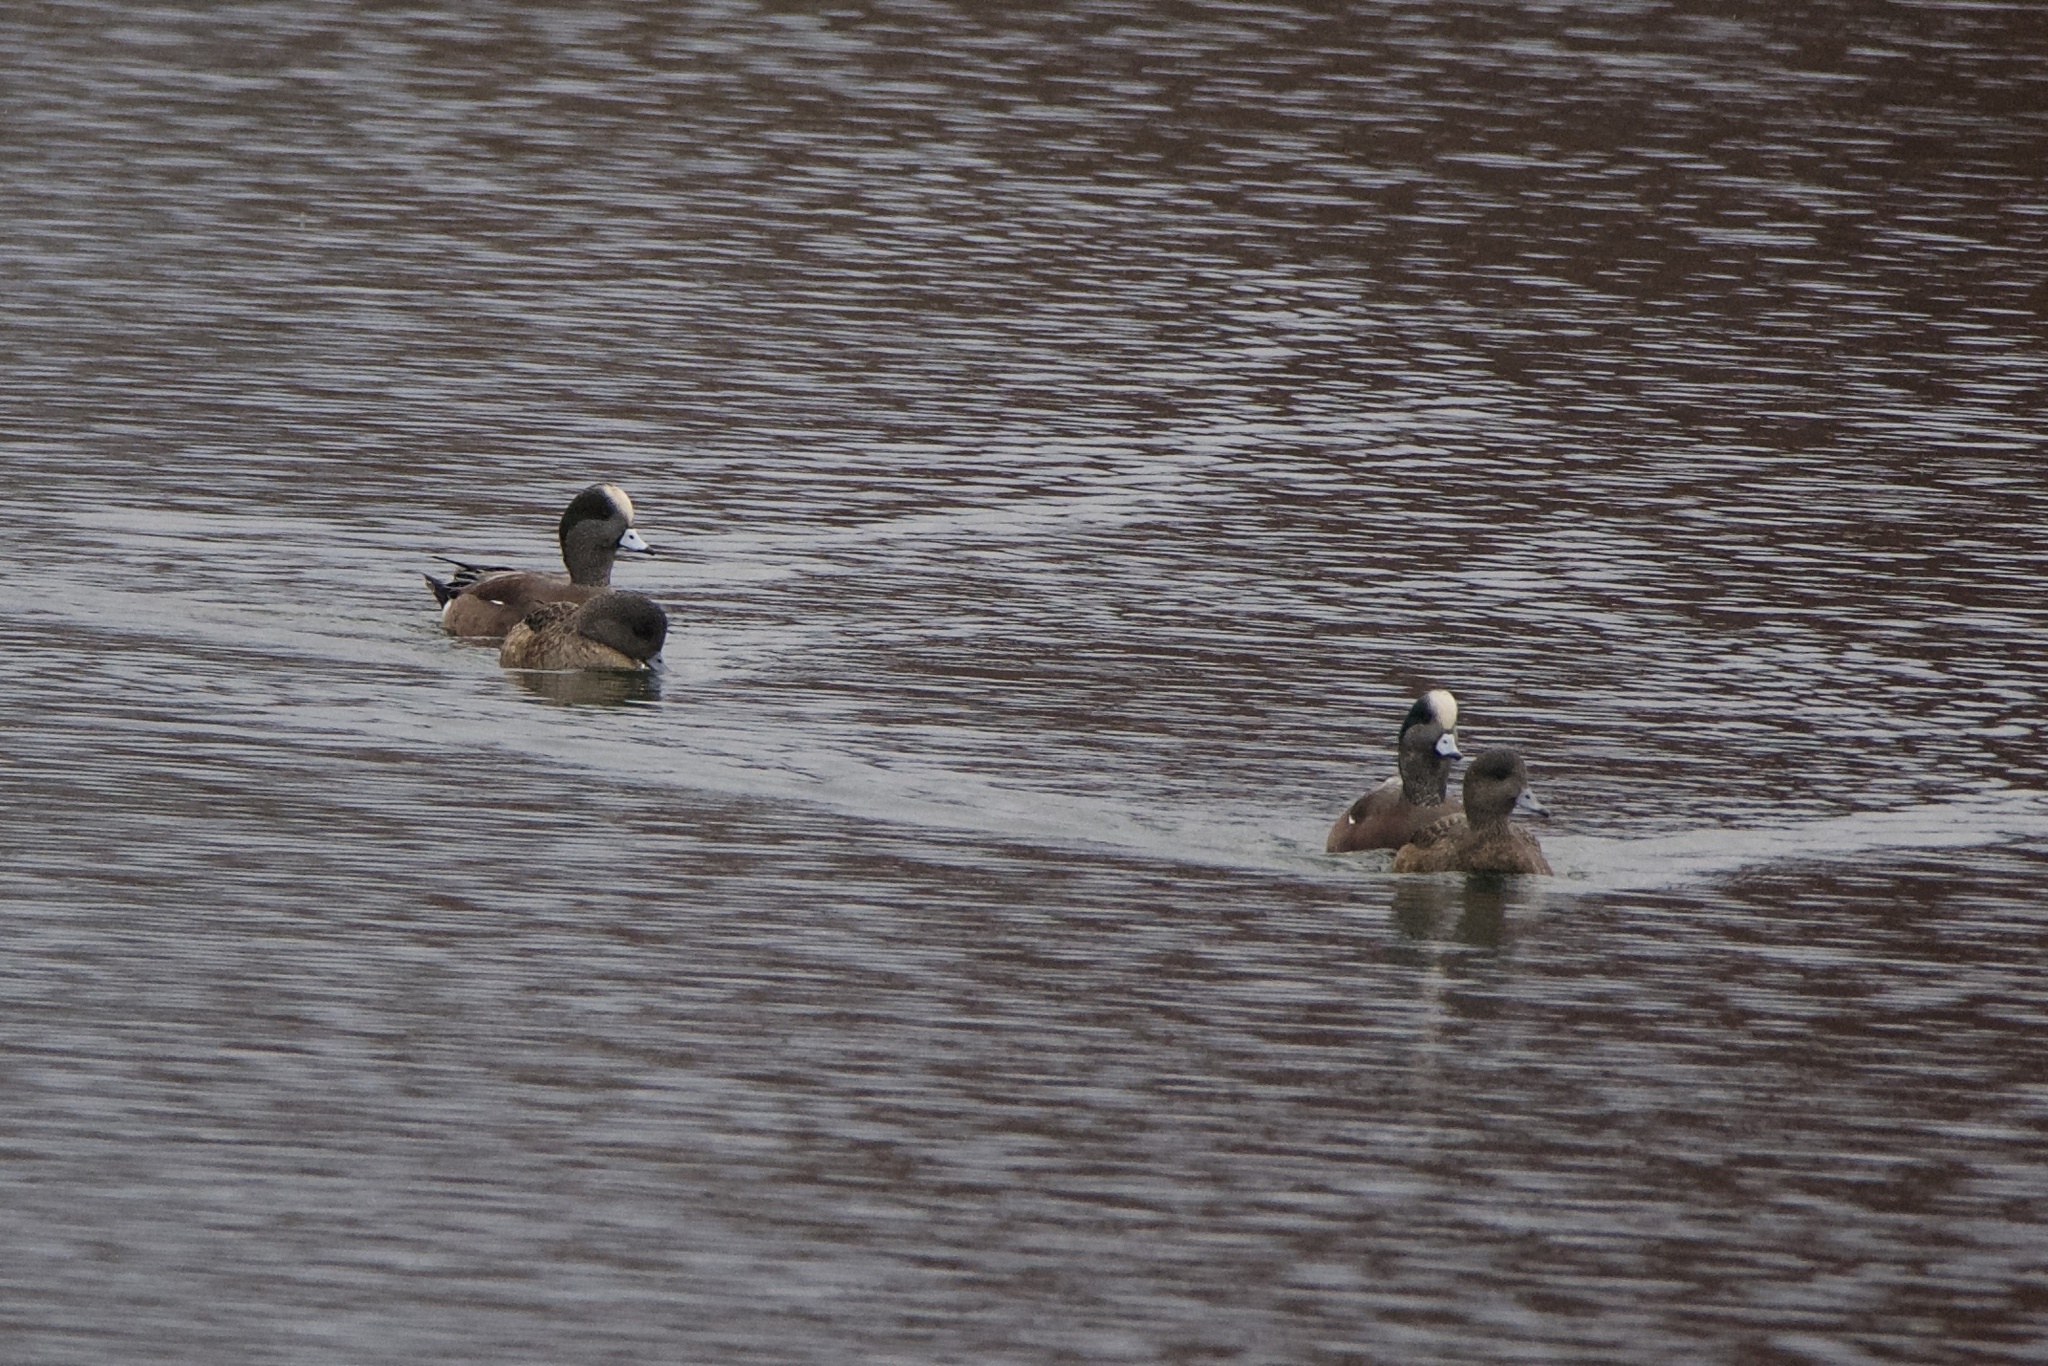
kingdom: Animalia
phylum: Chordata
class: Aves
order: Anseriformes
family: Anatidae
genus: Mareca
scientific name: Mareca americana
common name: American wigeon
